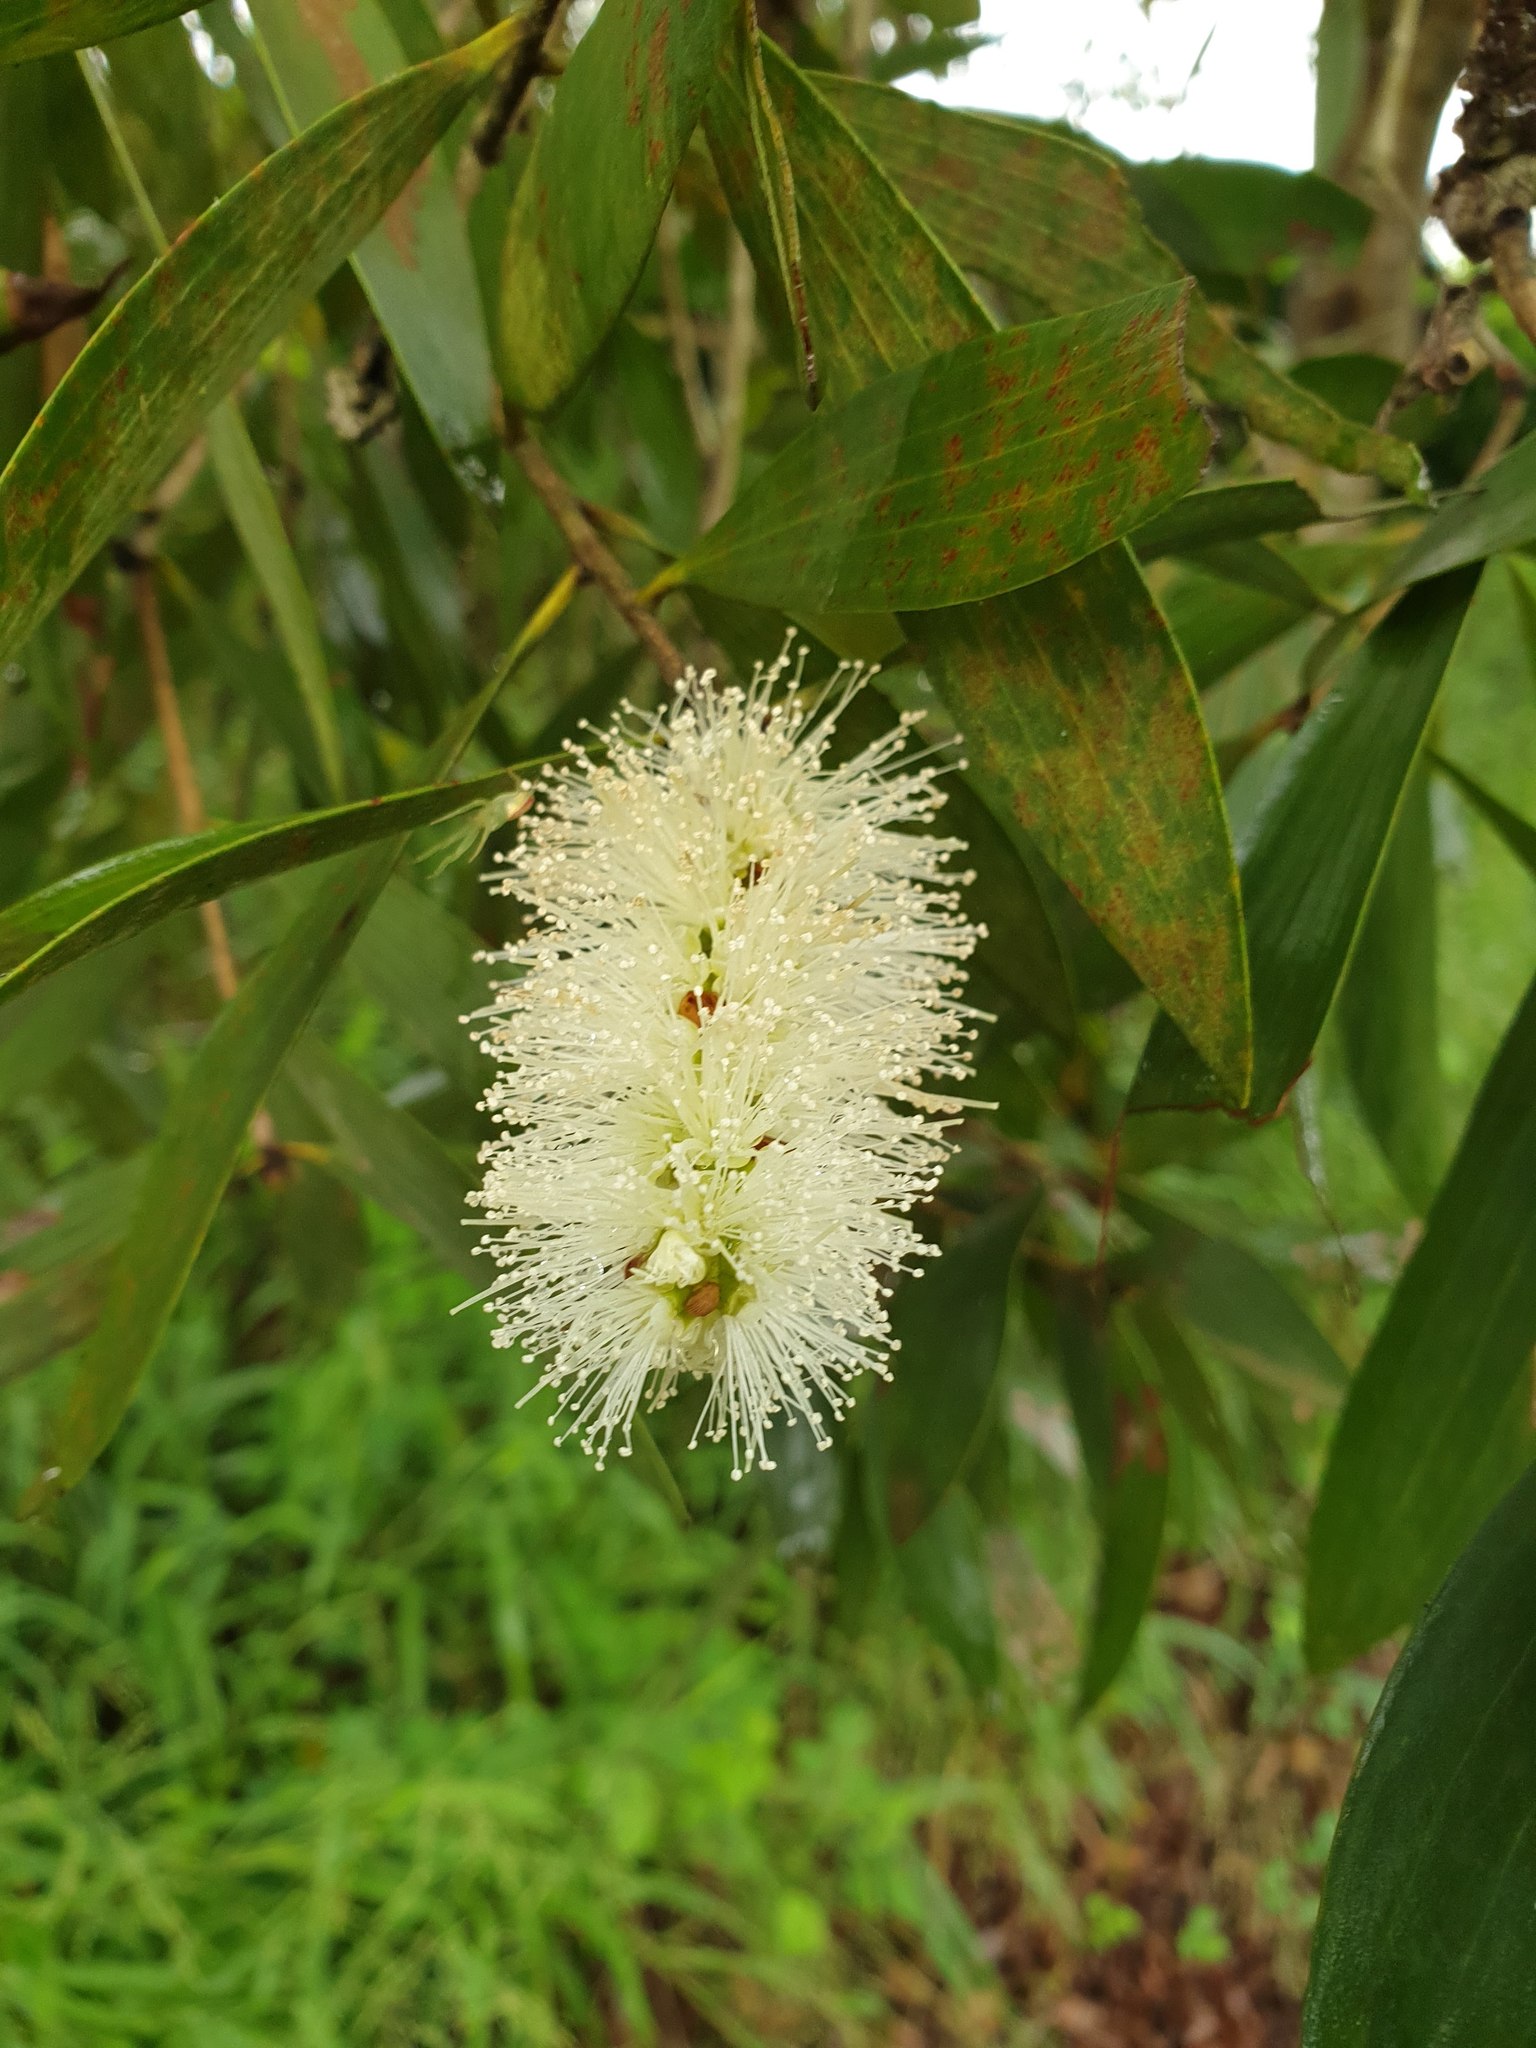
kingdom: Plantae
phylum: Tracheophyta
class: Magnoliopsida
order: Myrtales
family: Myrtaceae
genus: Melaleuca
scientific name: Melaleuca quinquenervia
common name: Punktree
